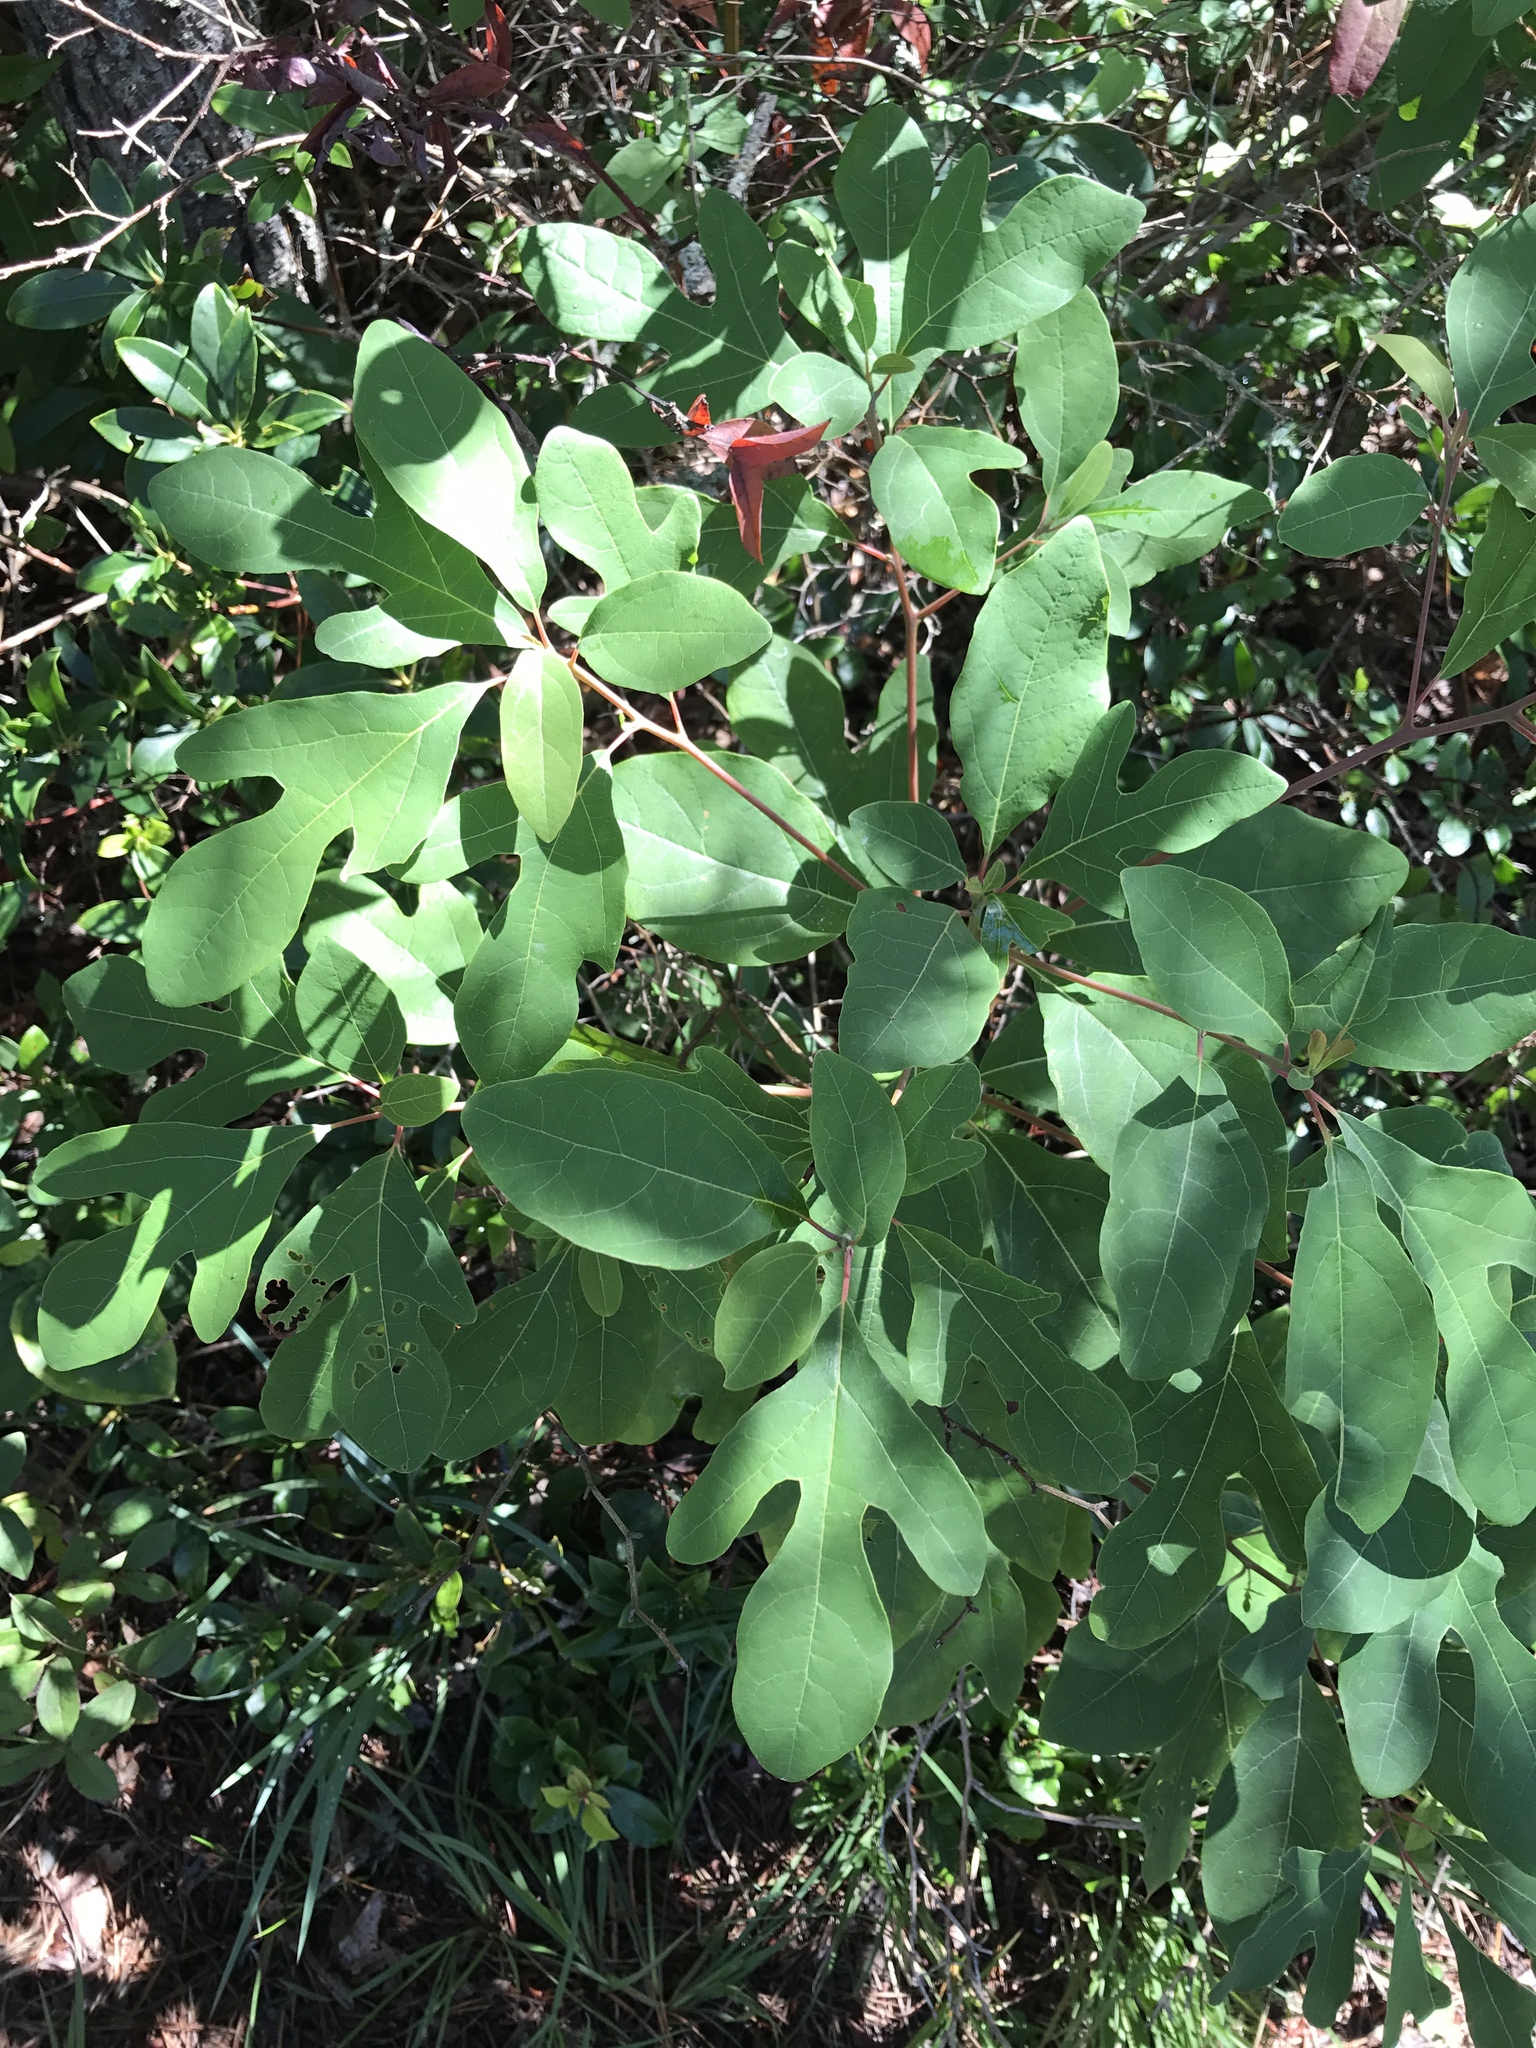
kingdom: Plantae
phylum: Tracheophyta
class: Magnoliopsida
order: Laurales
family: Lauraceae
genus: Sassafras
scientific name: Sassafras albidum
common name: Sassafras
